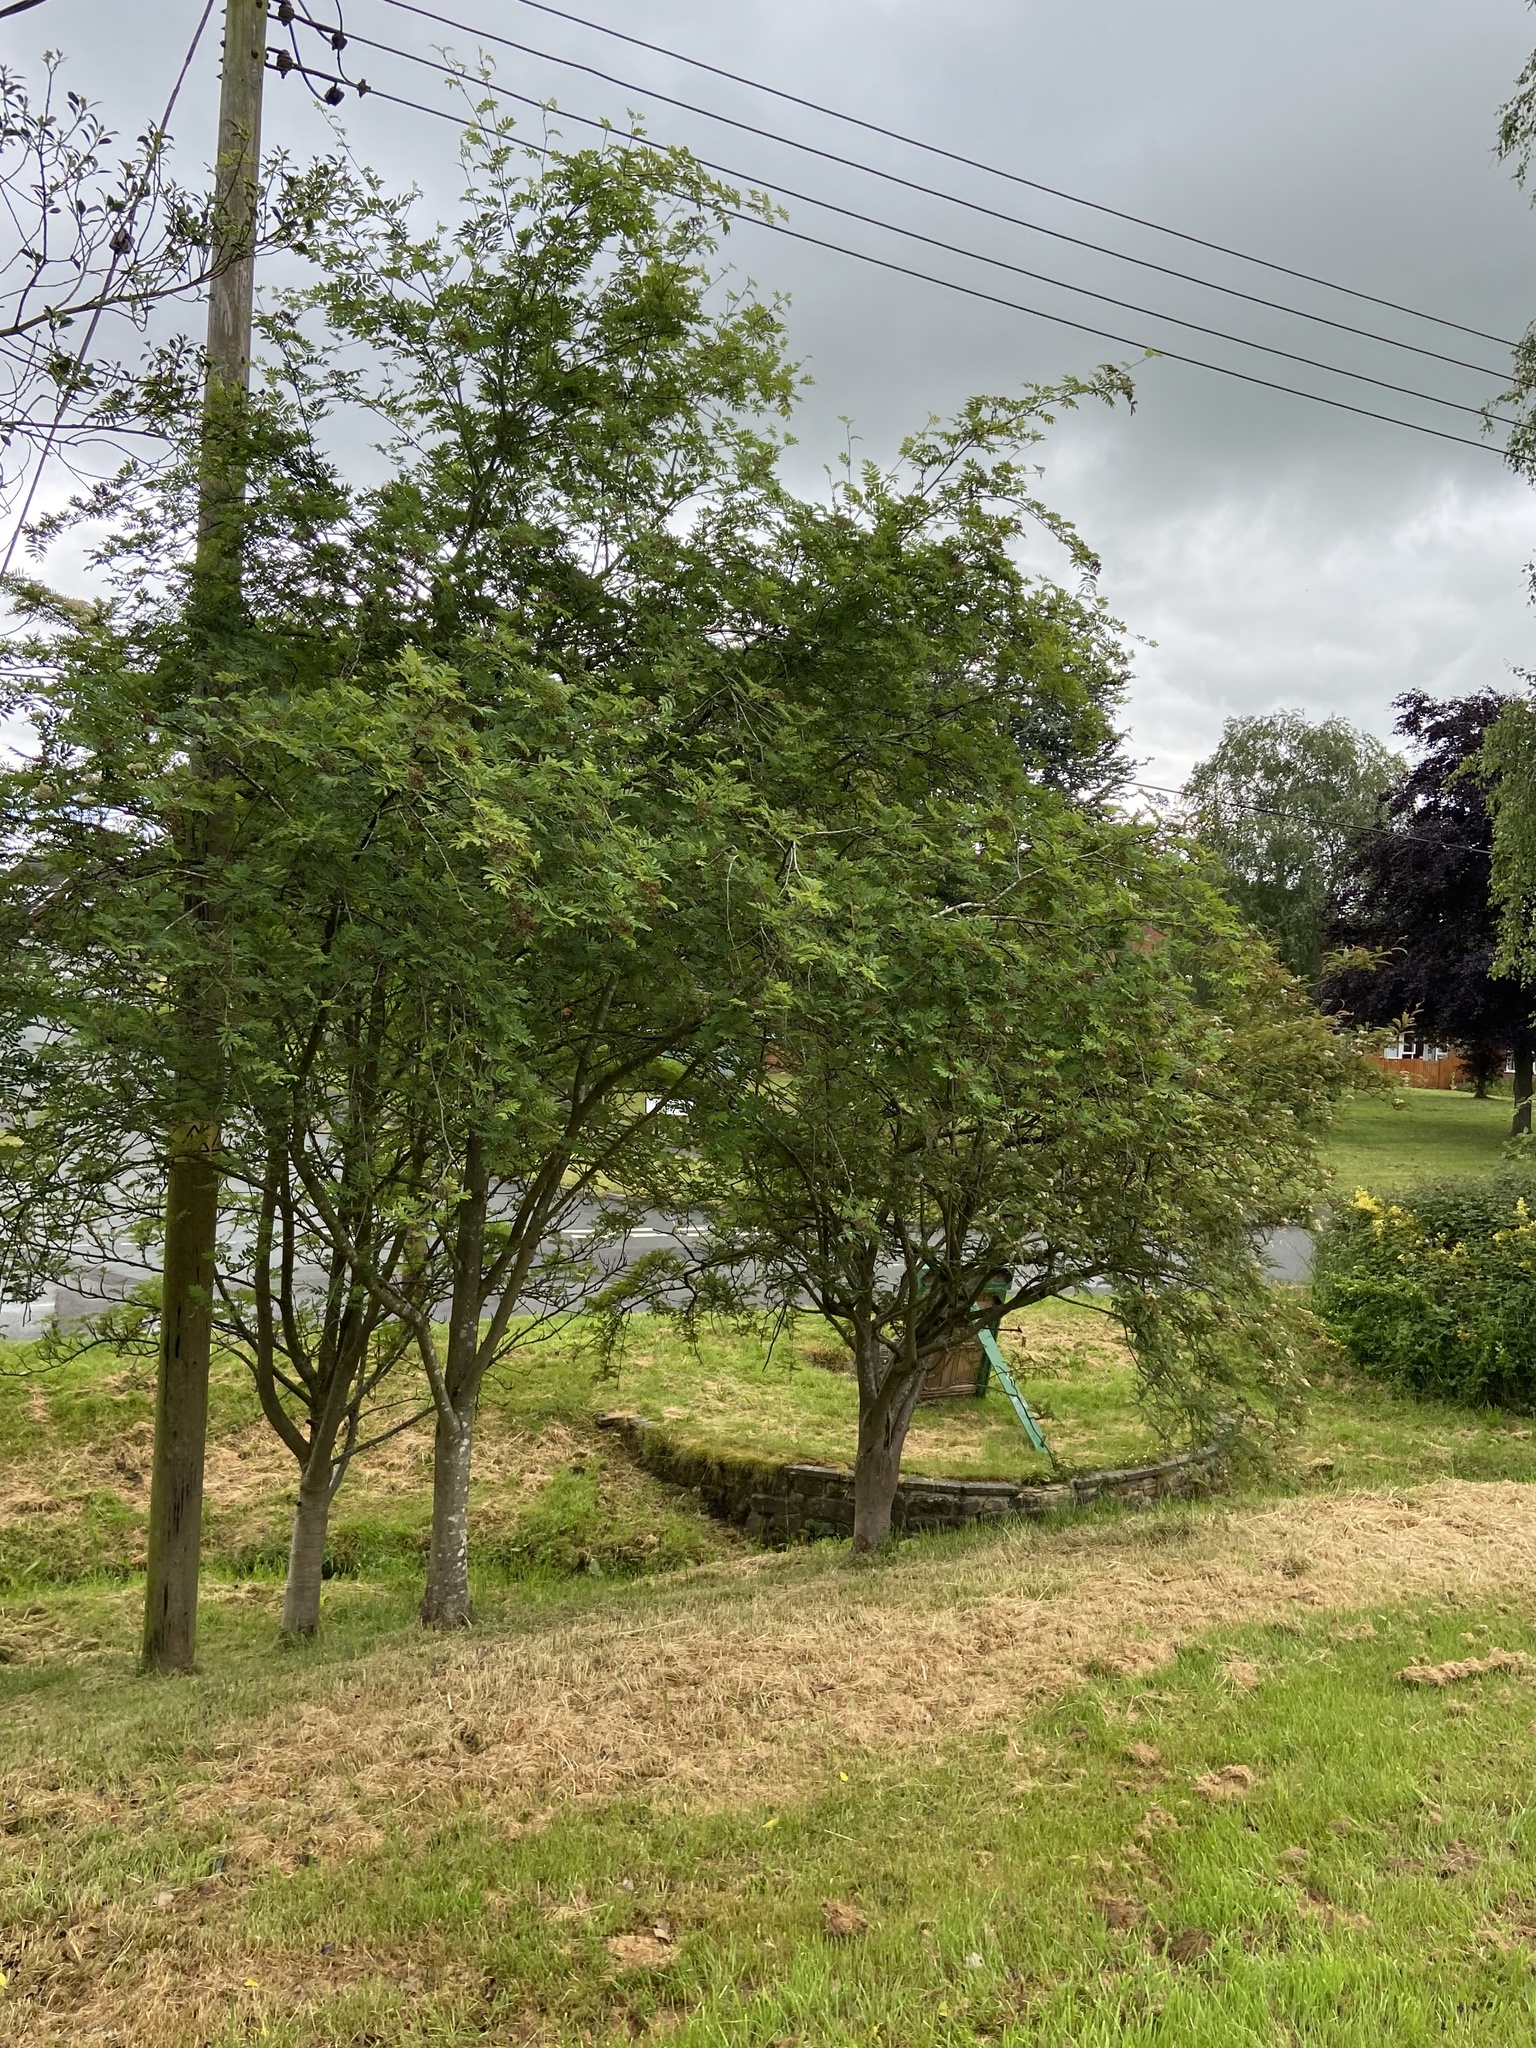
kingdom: Plantae
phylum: Tracheophyta
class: Magnoliopsida
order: Rosales
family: Rosaceae
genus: Sorbus
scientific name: Sorbus aucuparia
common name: Rowan
